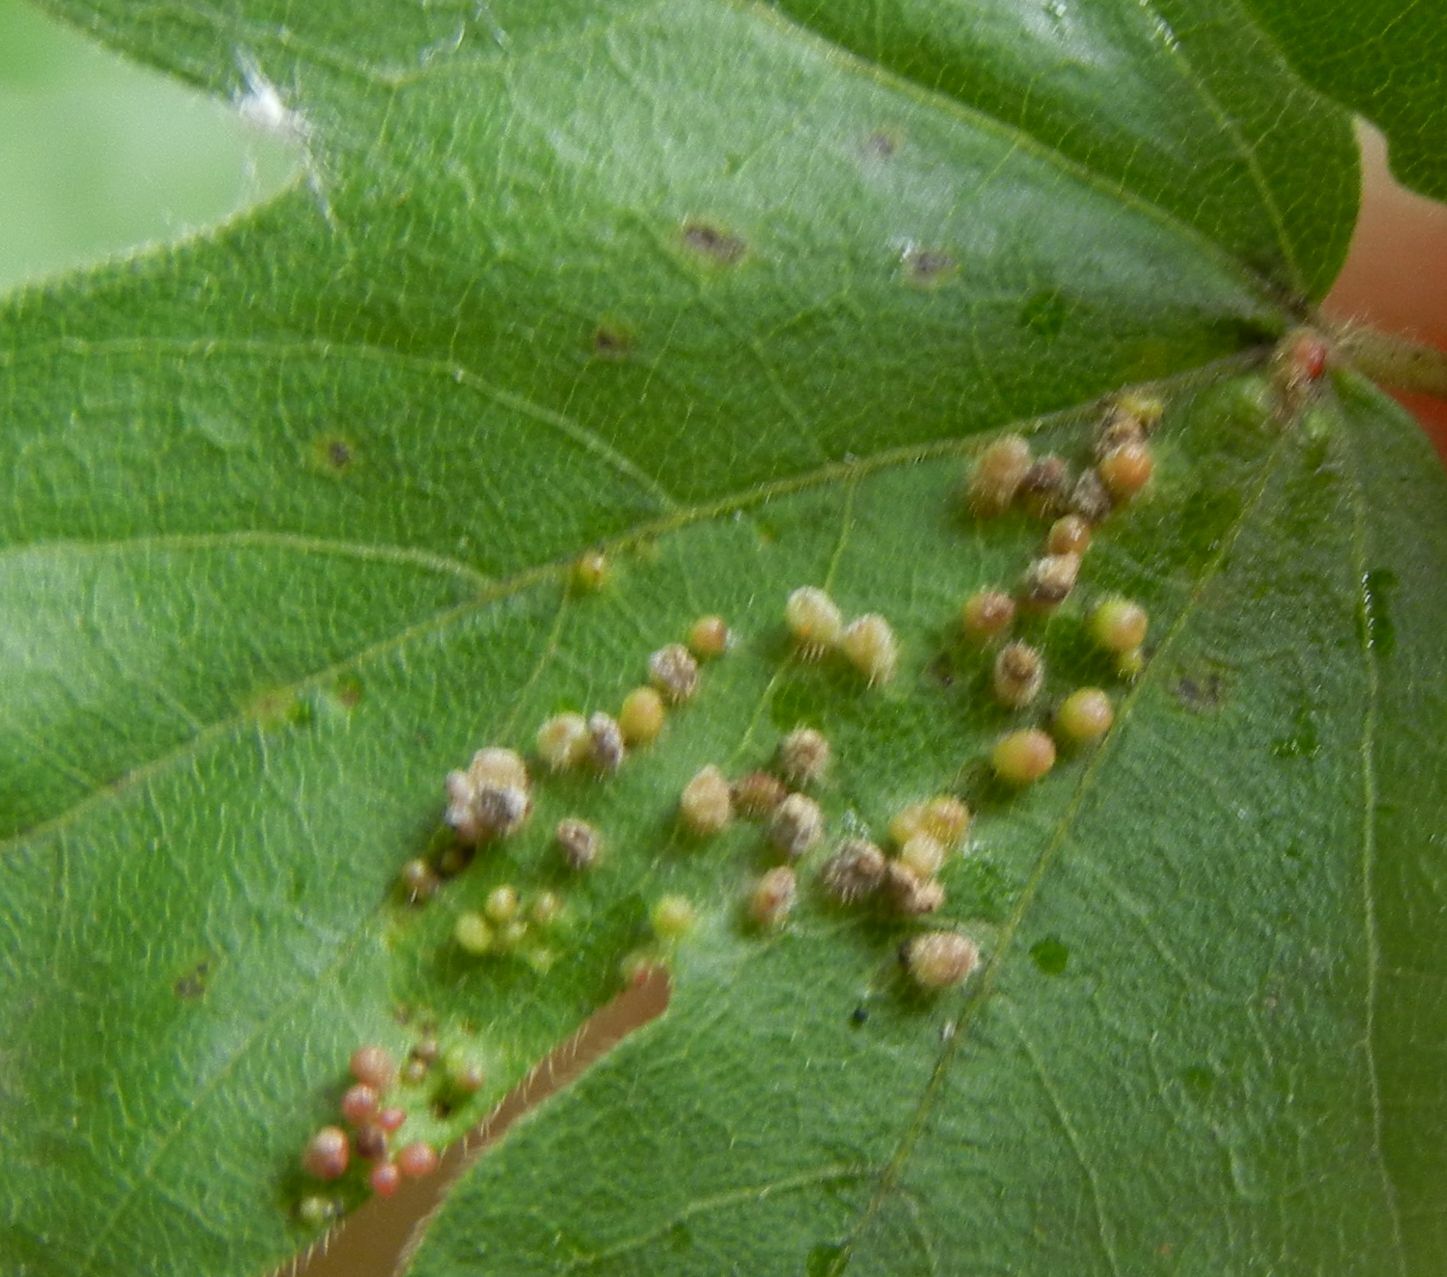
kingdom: Animalia
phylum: Arthropoda
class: Arachnida
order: Trombidiformes
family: Eriophyidae
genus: Aceria
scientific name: Aceria myriadeum
